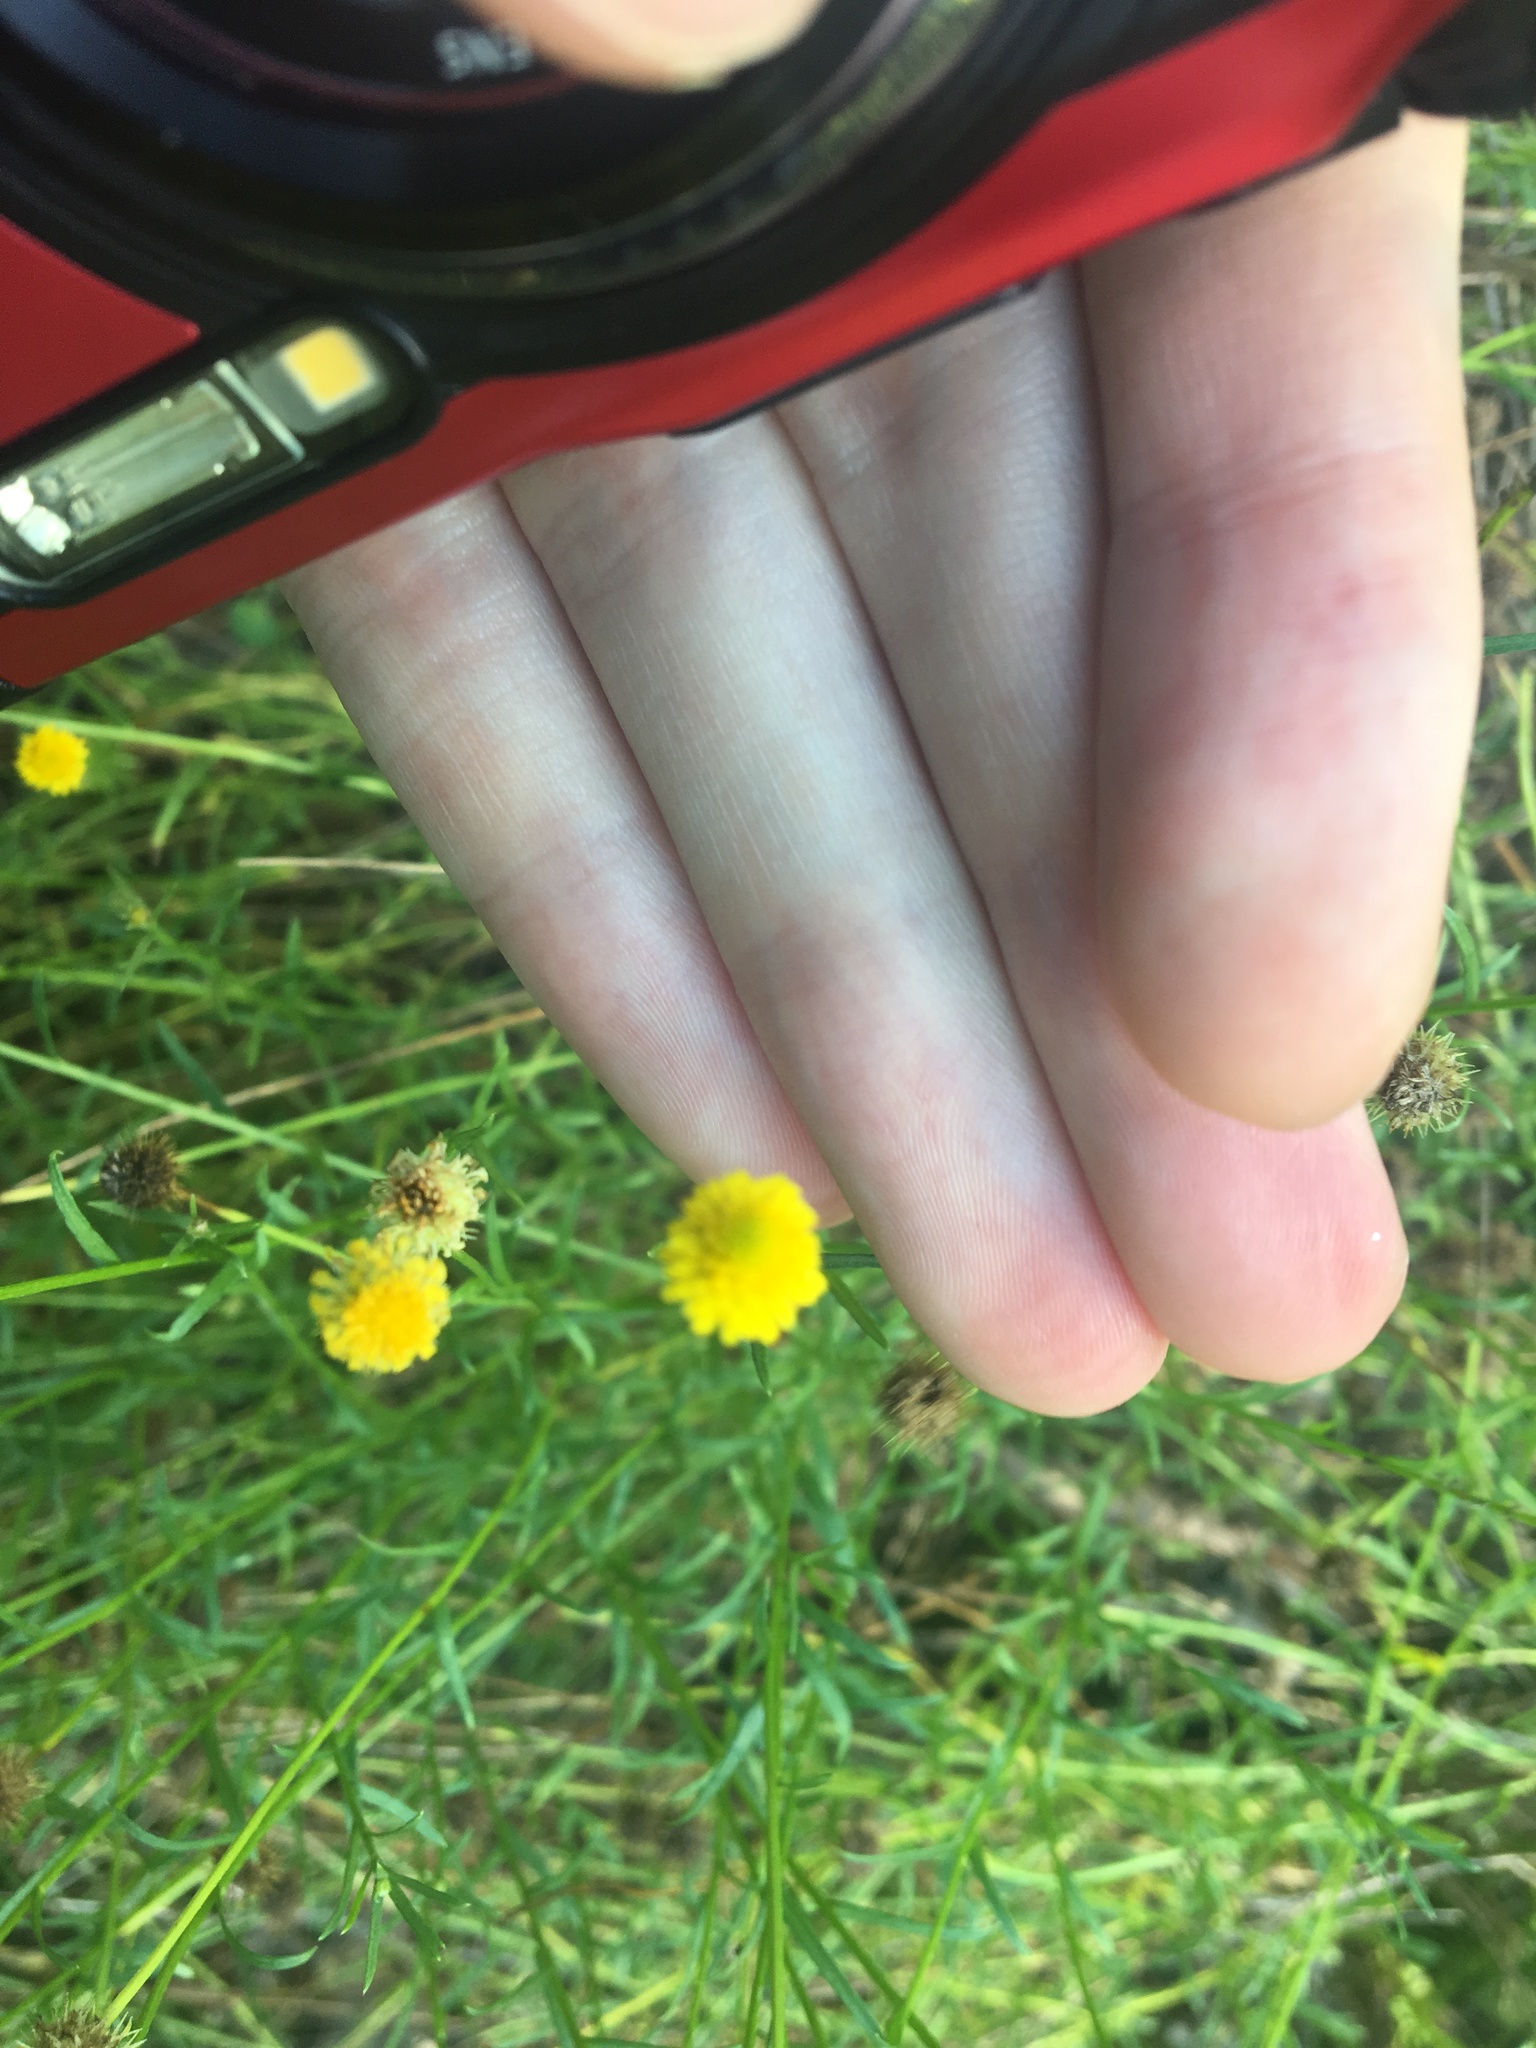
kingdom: Plantae
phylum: Tracheophyta
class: Magnoliopsida
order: Asterales
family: Asteraceae
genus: Calotis
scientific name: Calotis lappulacea
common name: Bur daisy
